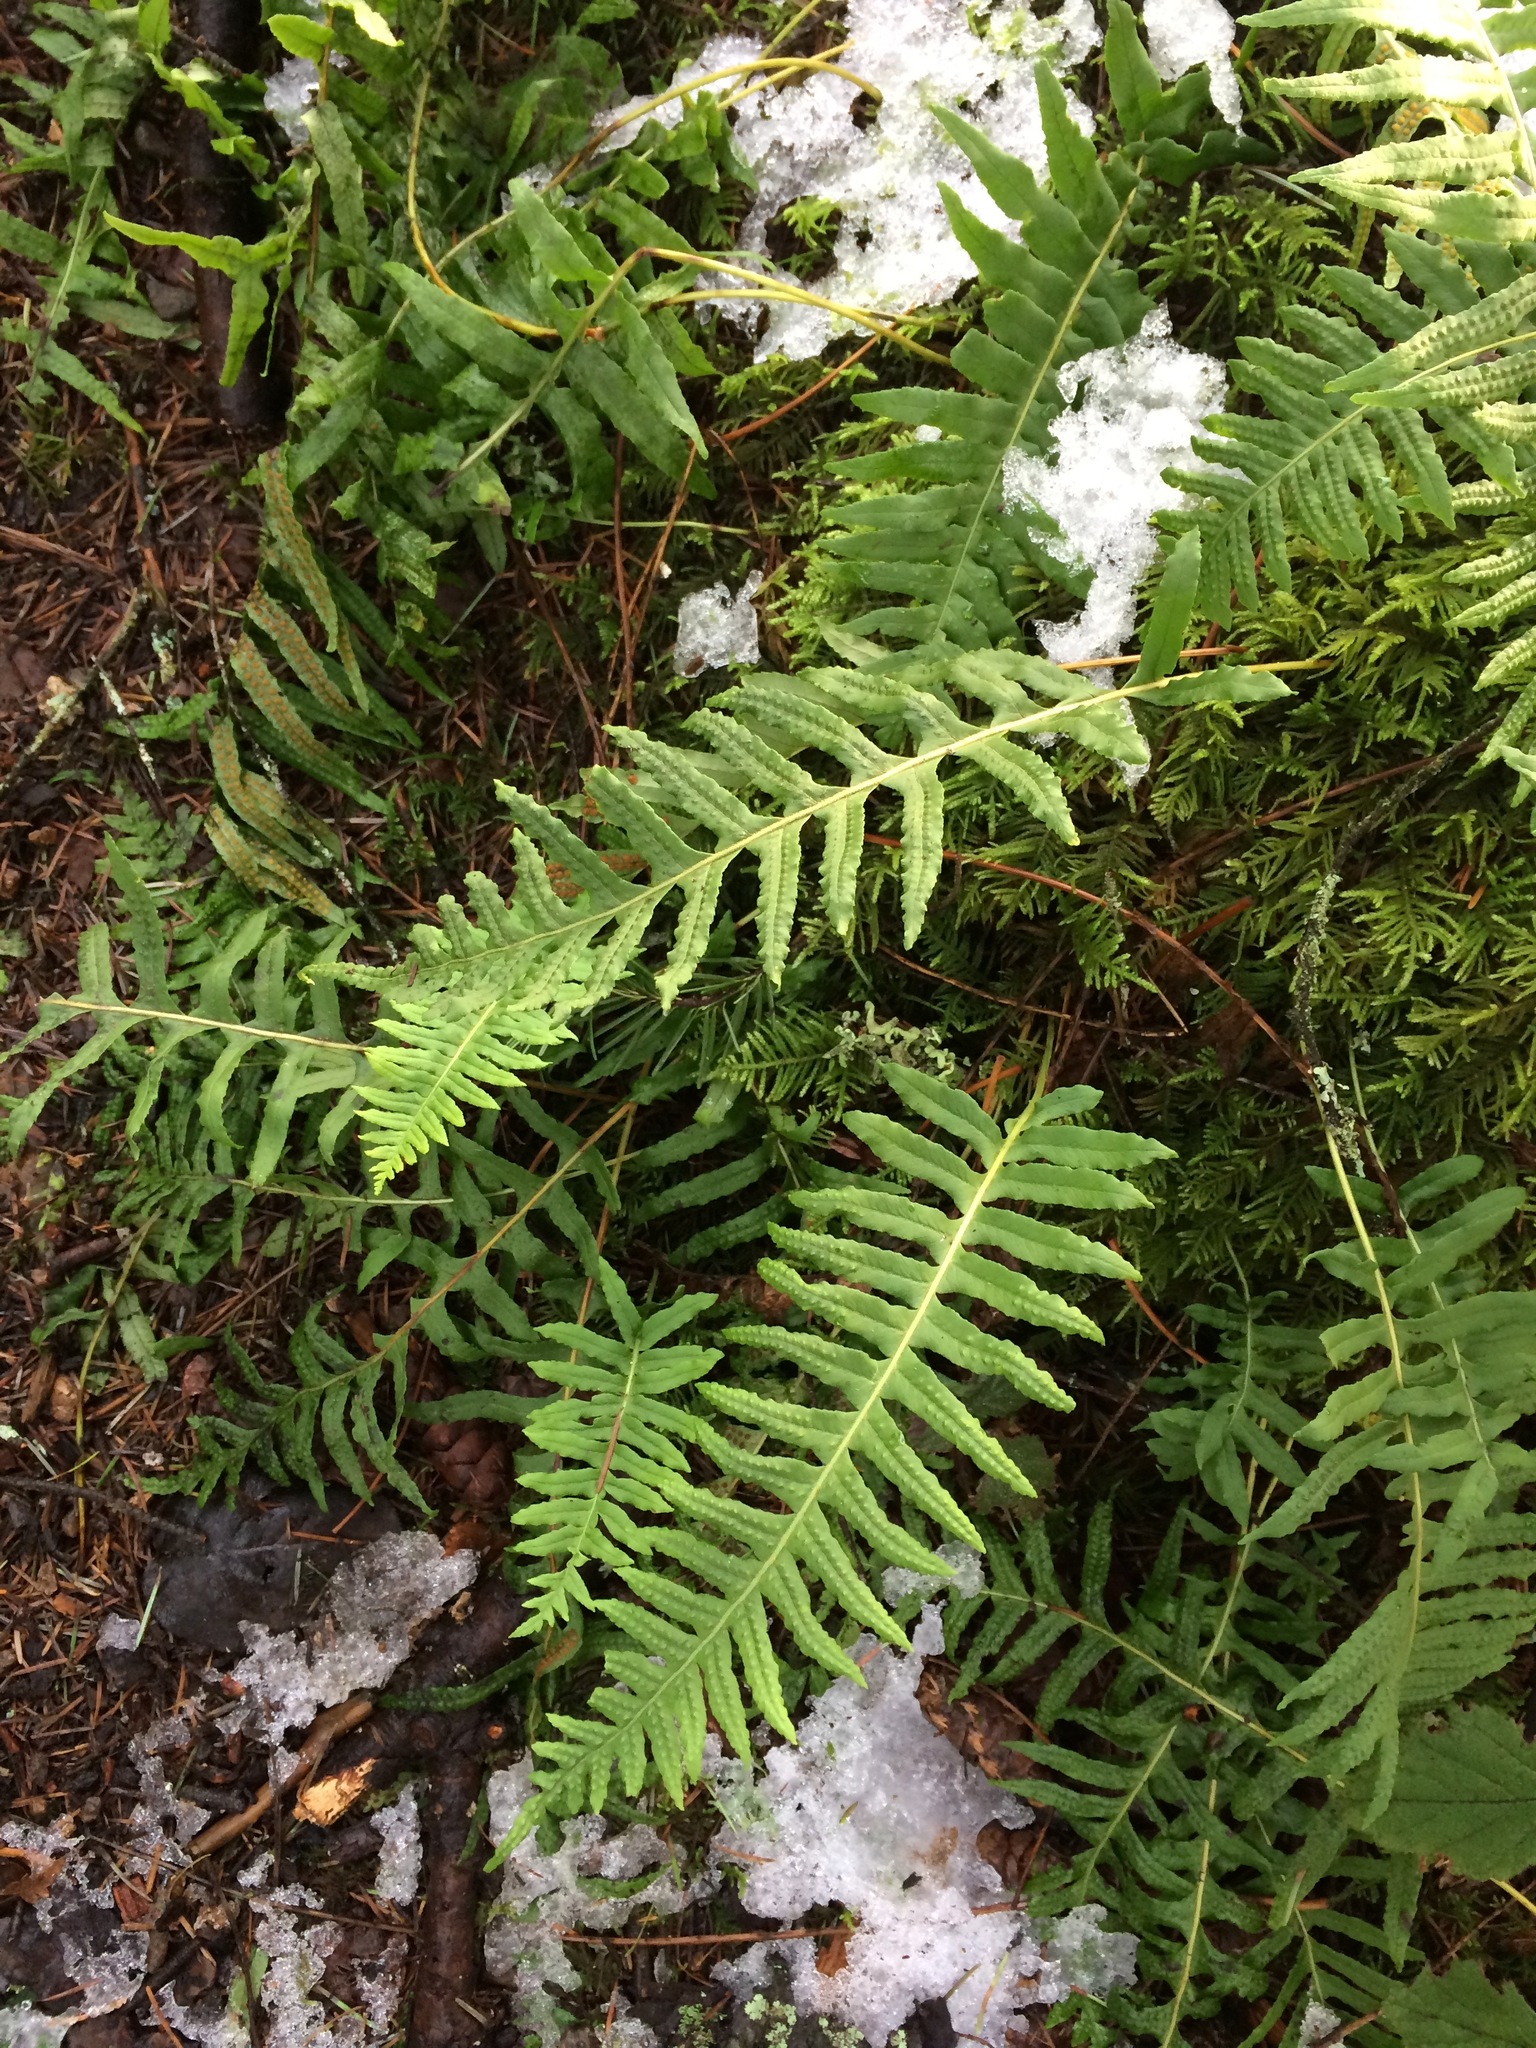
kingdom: Plantae
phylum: Tracheophyta
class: Polypodiopsida
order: Polypodiales
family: Polypodiaceae
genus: Polypodium
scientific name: Polypodium glycyrrhiza
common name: Licorice fern
